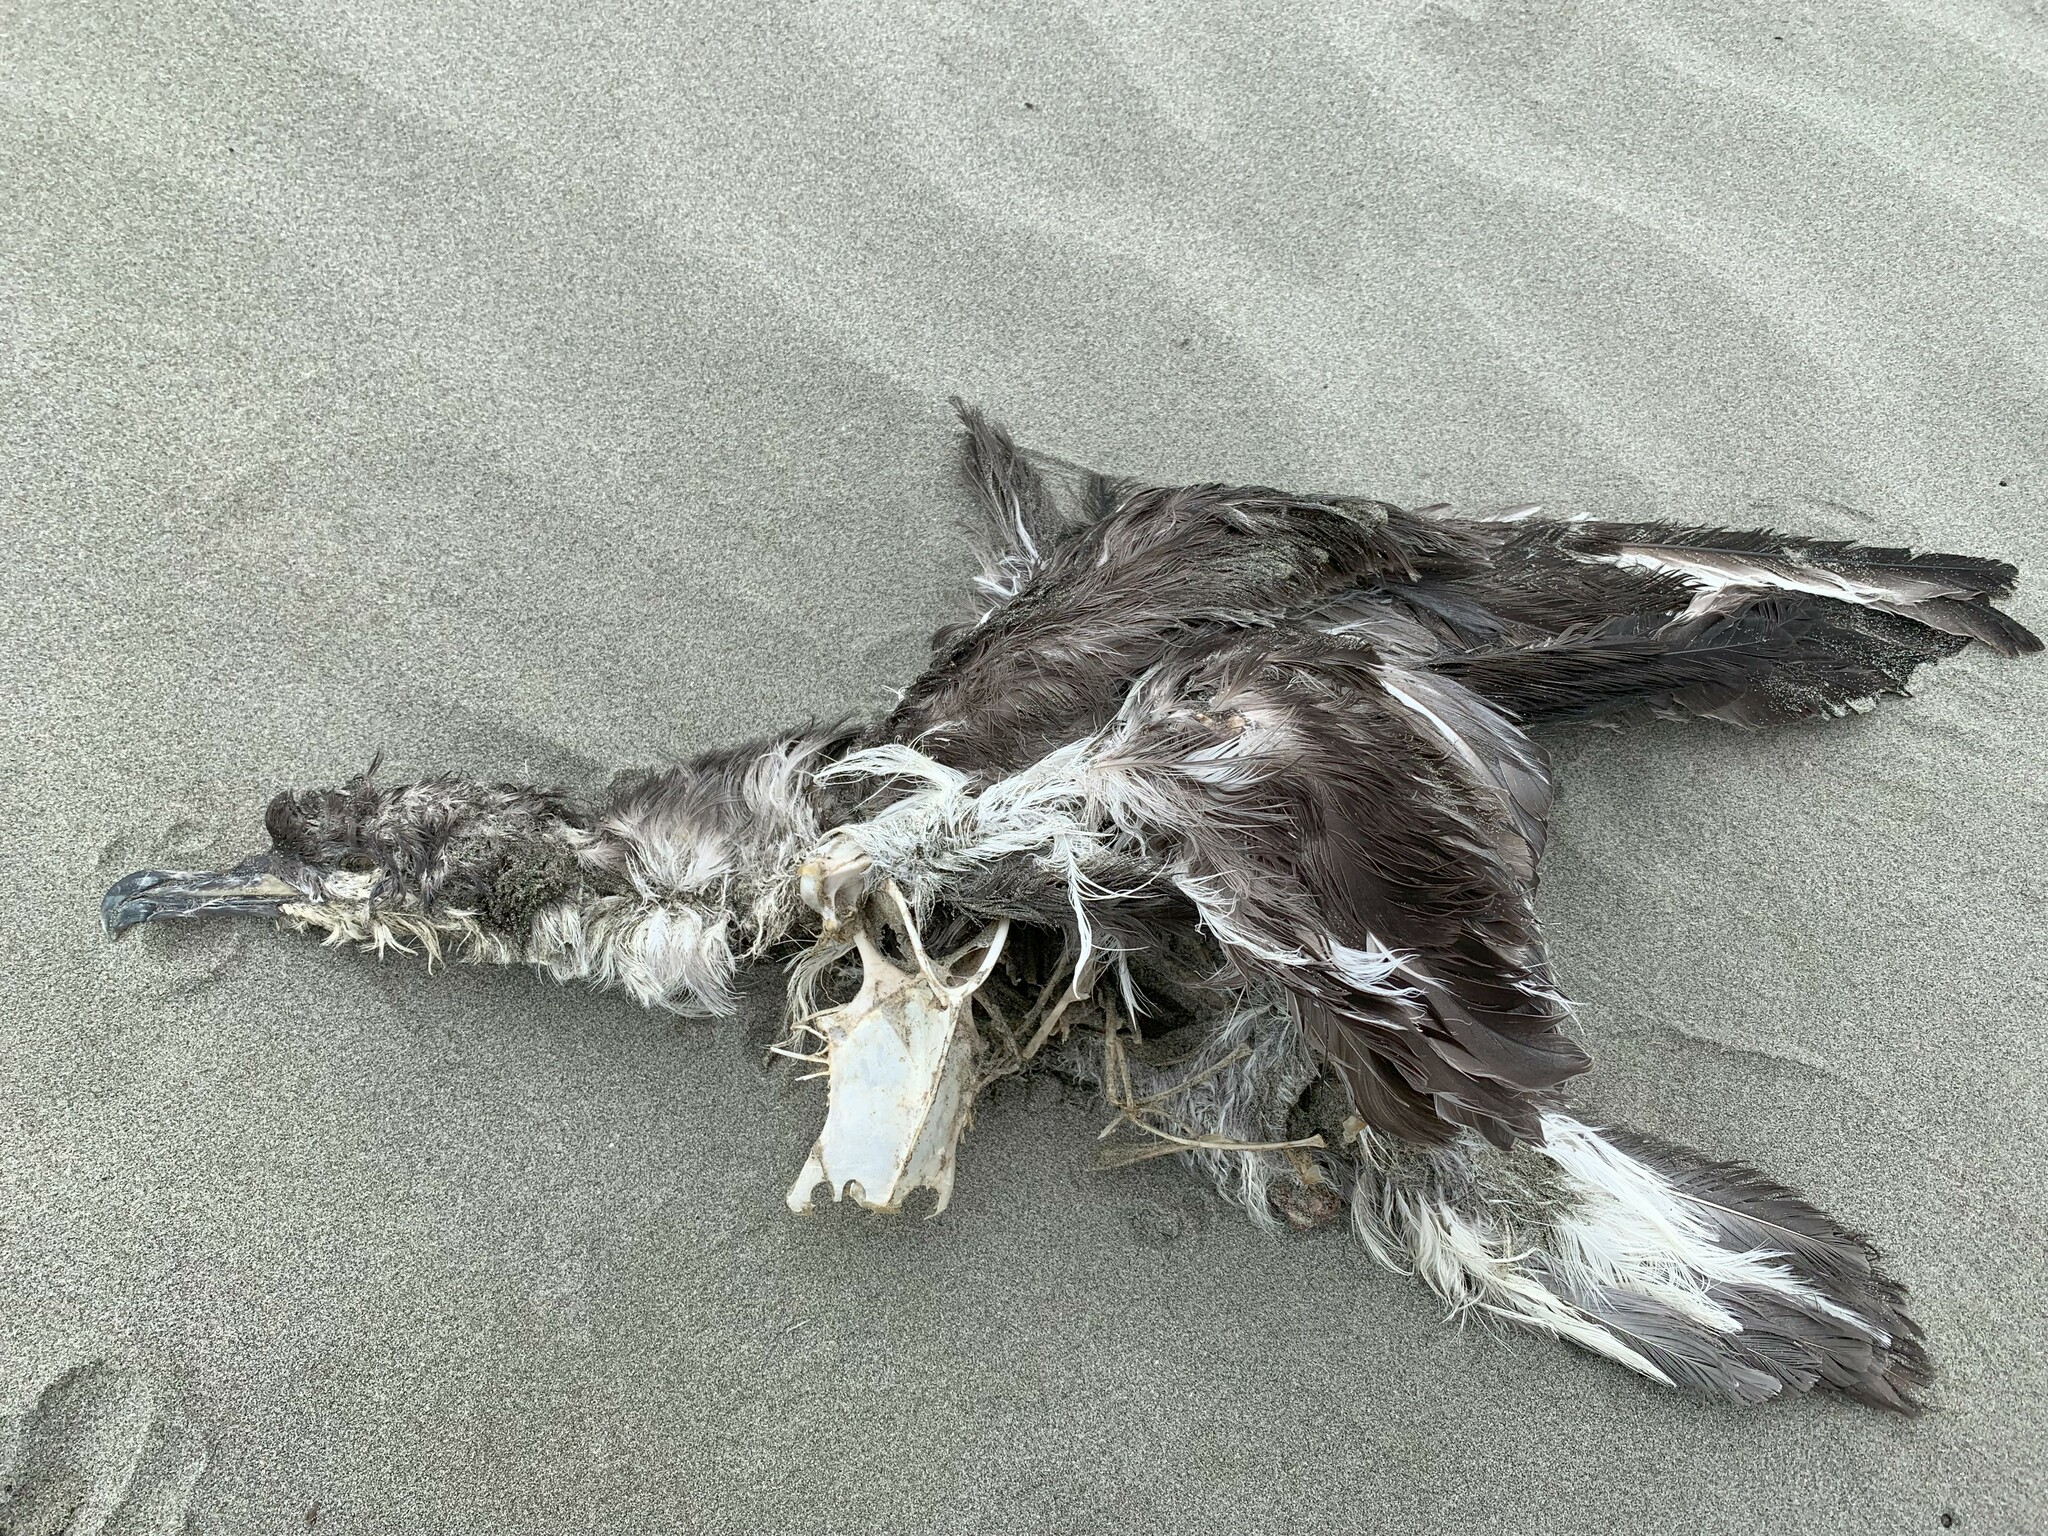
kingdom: Animalia
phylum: Chordata
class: Aves
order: Procellariiformes
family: Procellariidae
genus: Puffinus
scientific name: Puffinus bulleri
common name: Buller's shearwater
